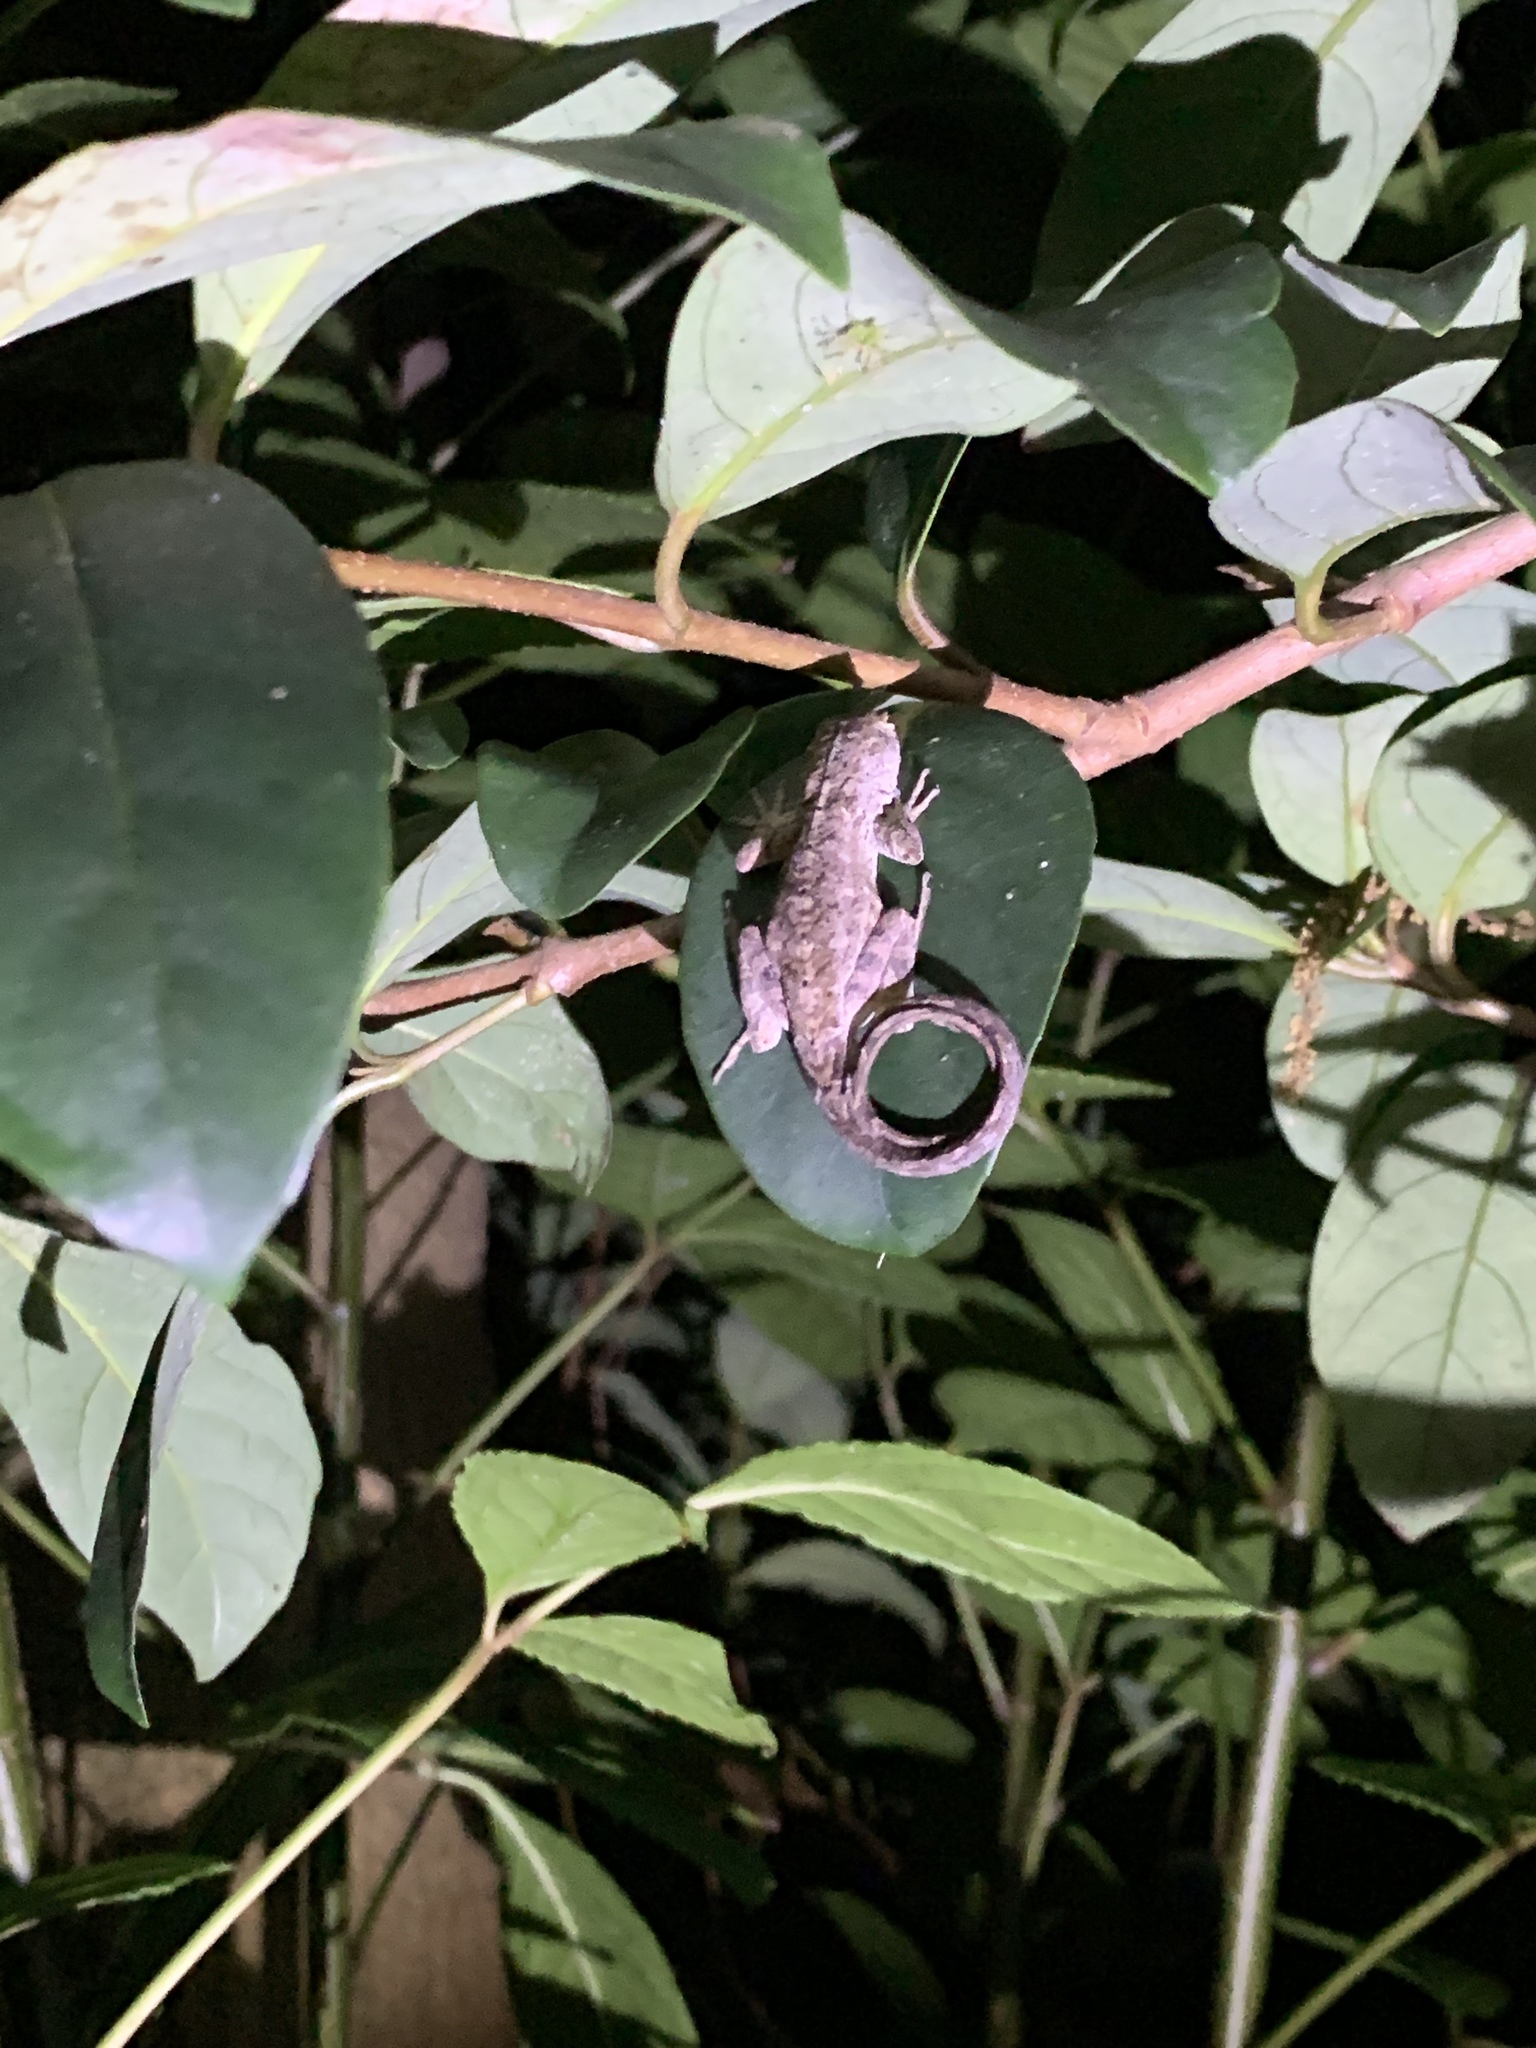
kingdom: Animalia
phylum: Chordata
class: Squamata
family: Dactyloidae
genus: Anolis
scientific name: Anolis sagrei
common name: Brown anole
